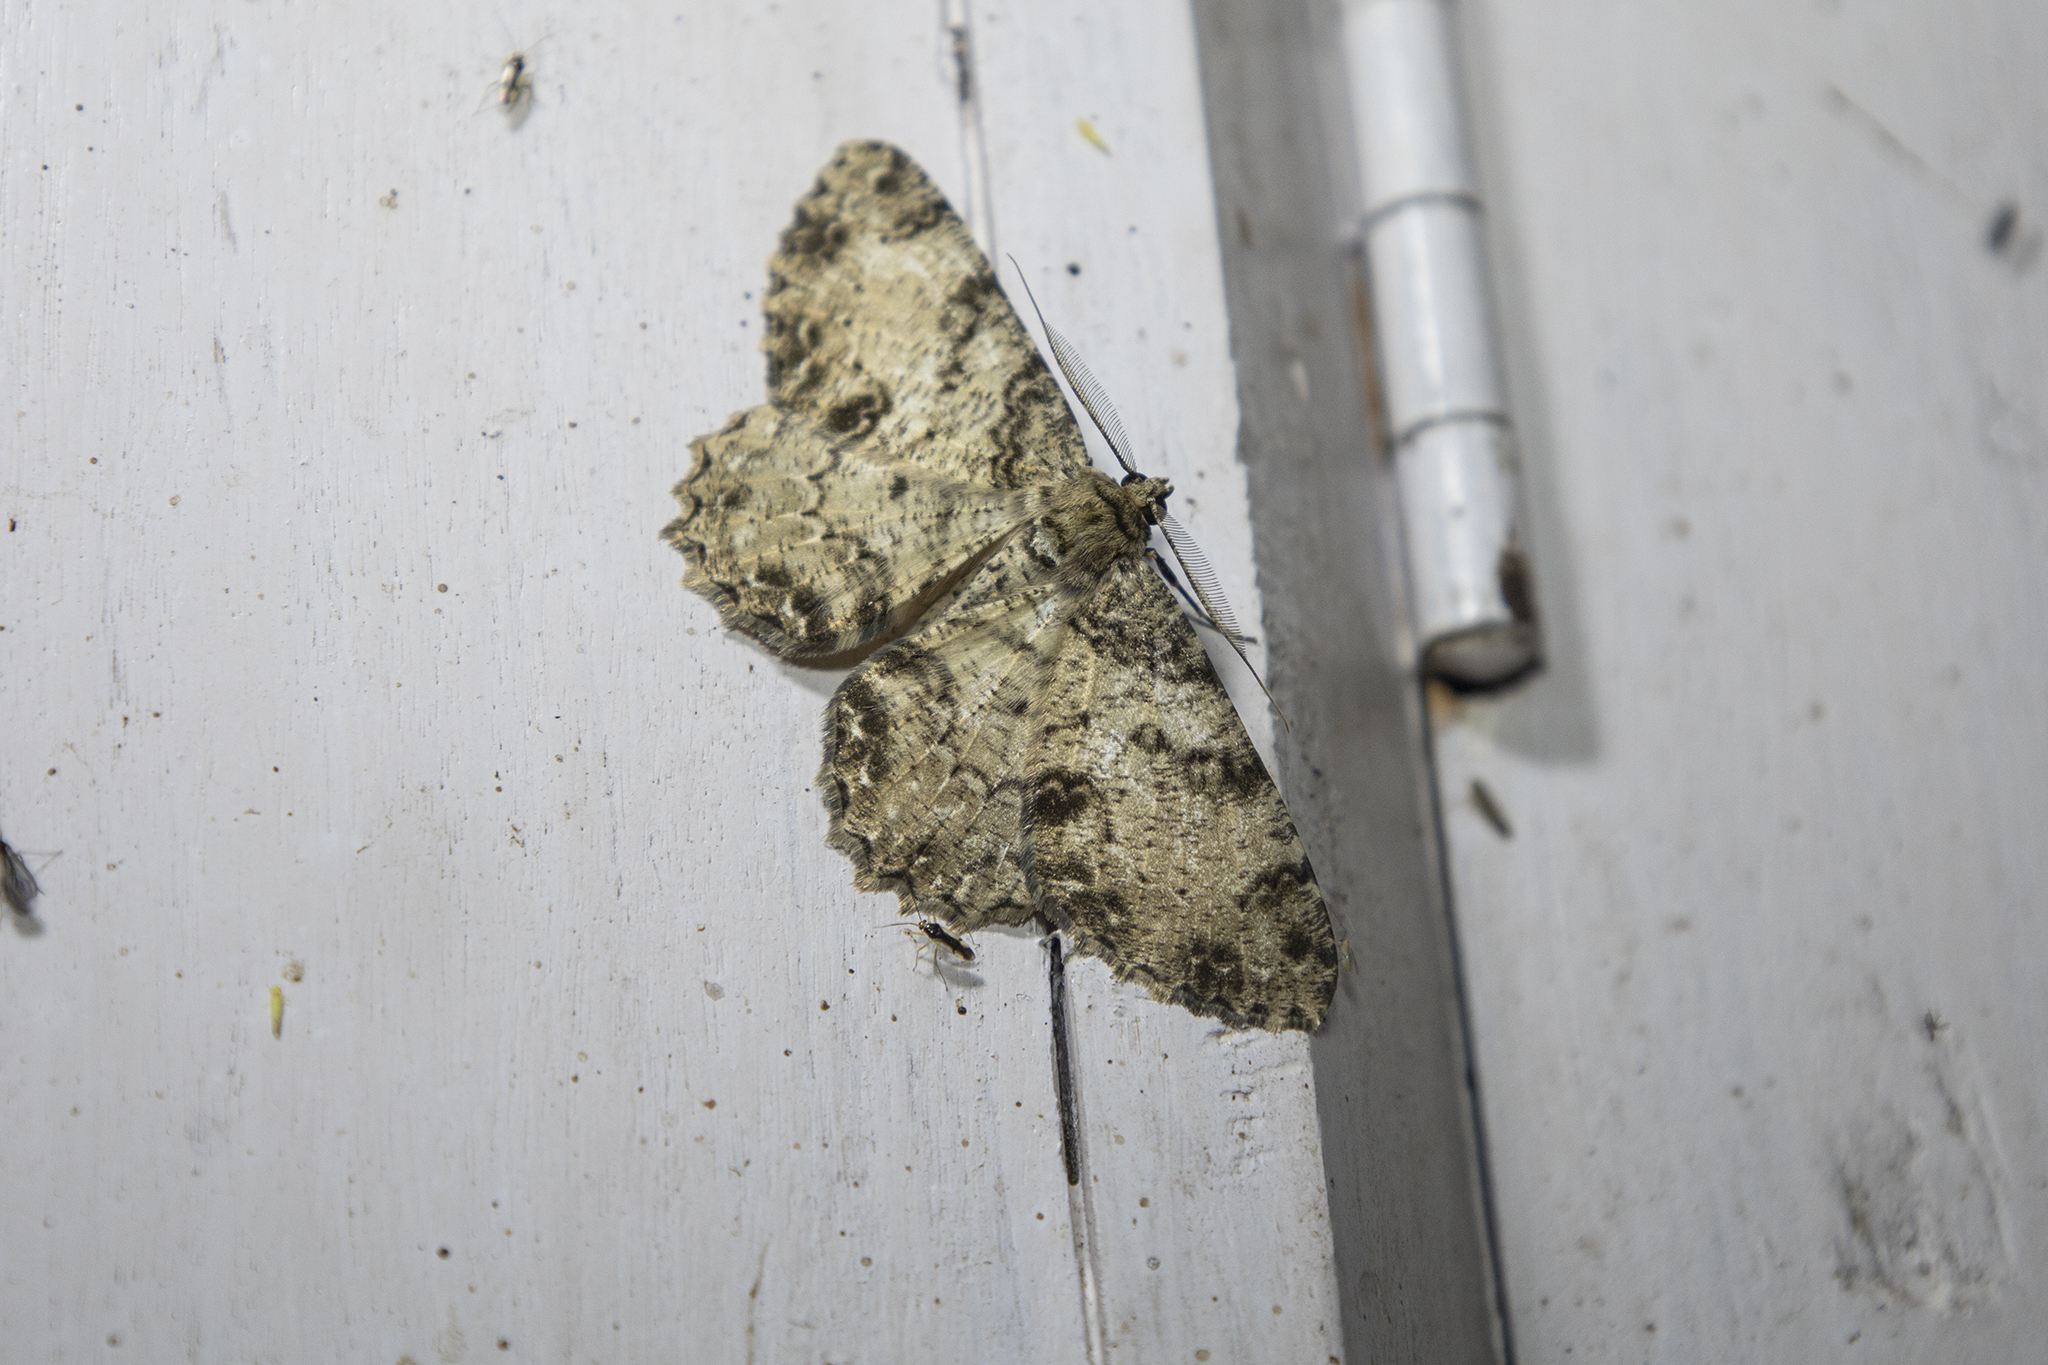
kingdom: Animalia
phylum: Arthropoda
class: Insecta
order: Lepidoptera
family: Geometridae
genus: Darisa
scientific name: Darisa leledaria
